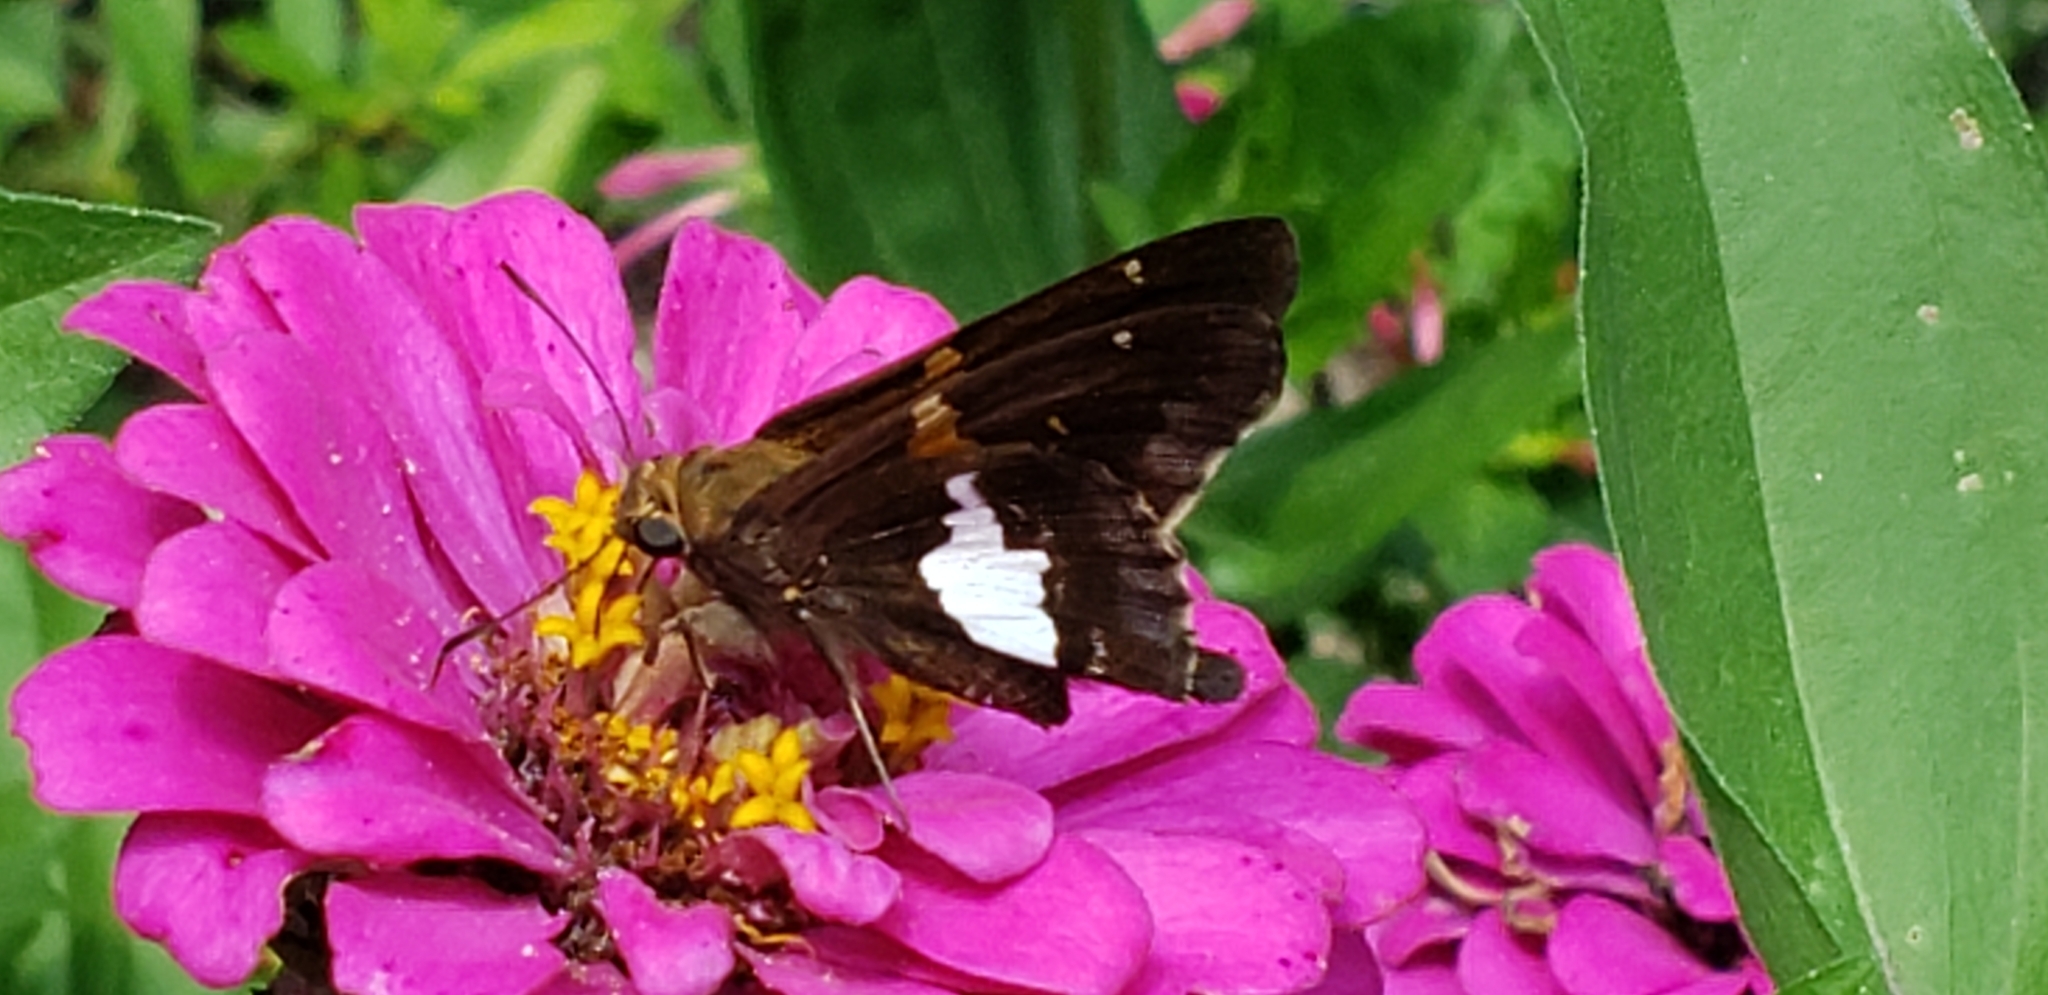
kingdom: Animalia
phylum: Arthropoda
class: Insecta
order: Lepidoptera
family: Hesperiidae
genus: Epargyreus
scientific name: Epargyreus clarus
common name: Silver-spotted skipper
